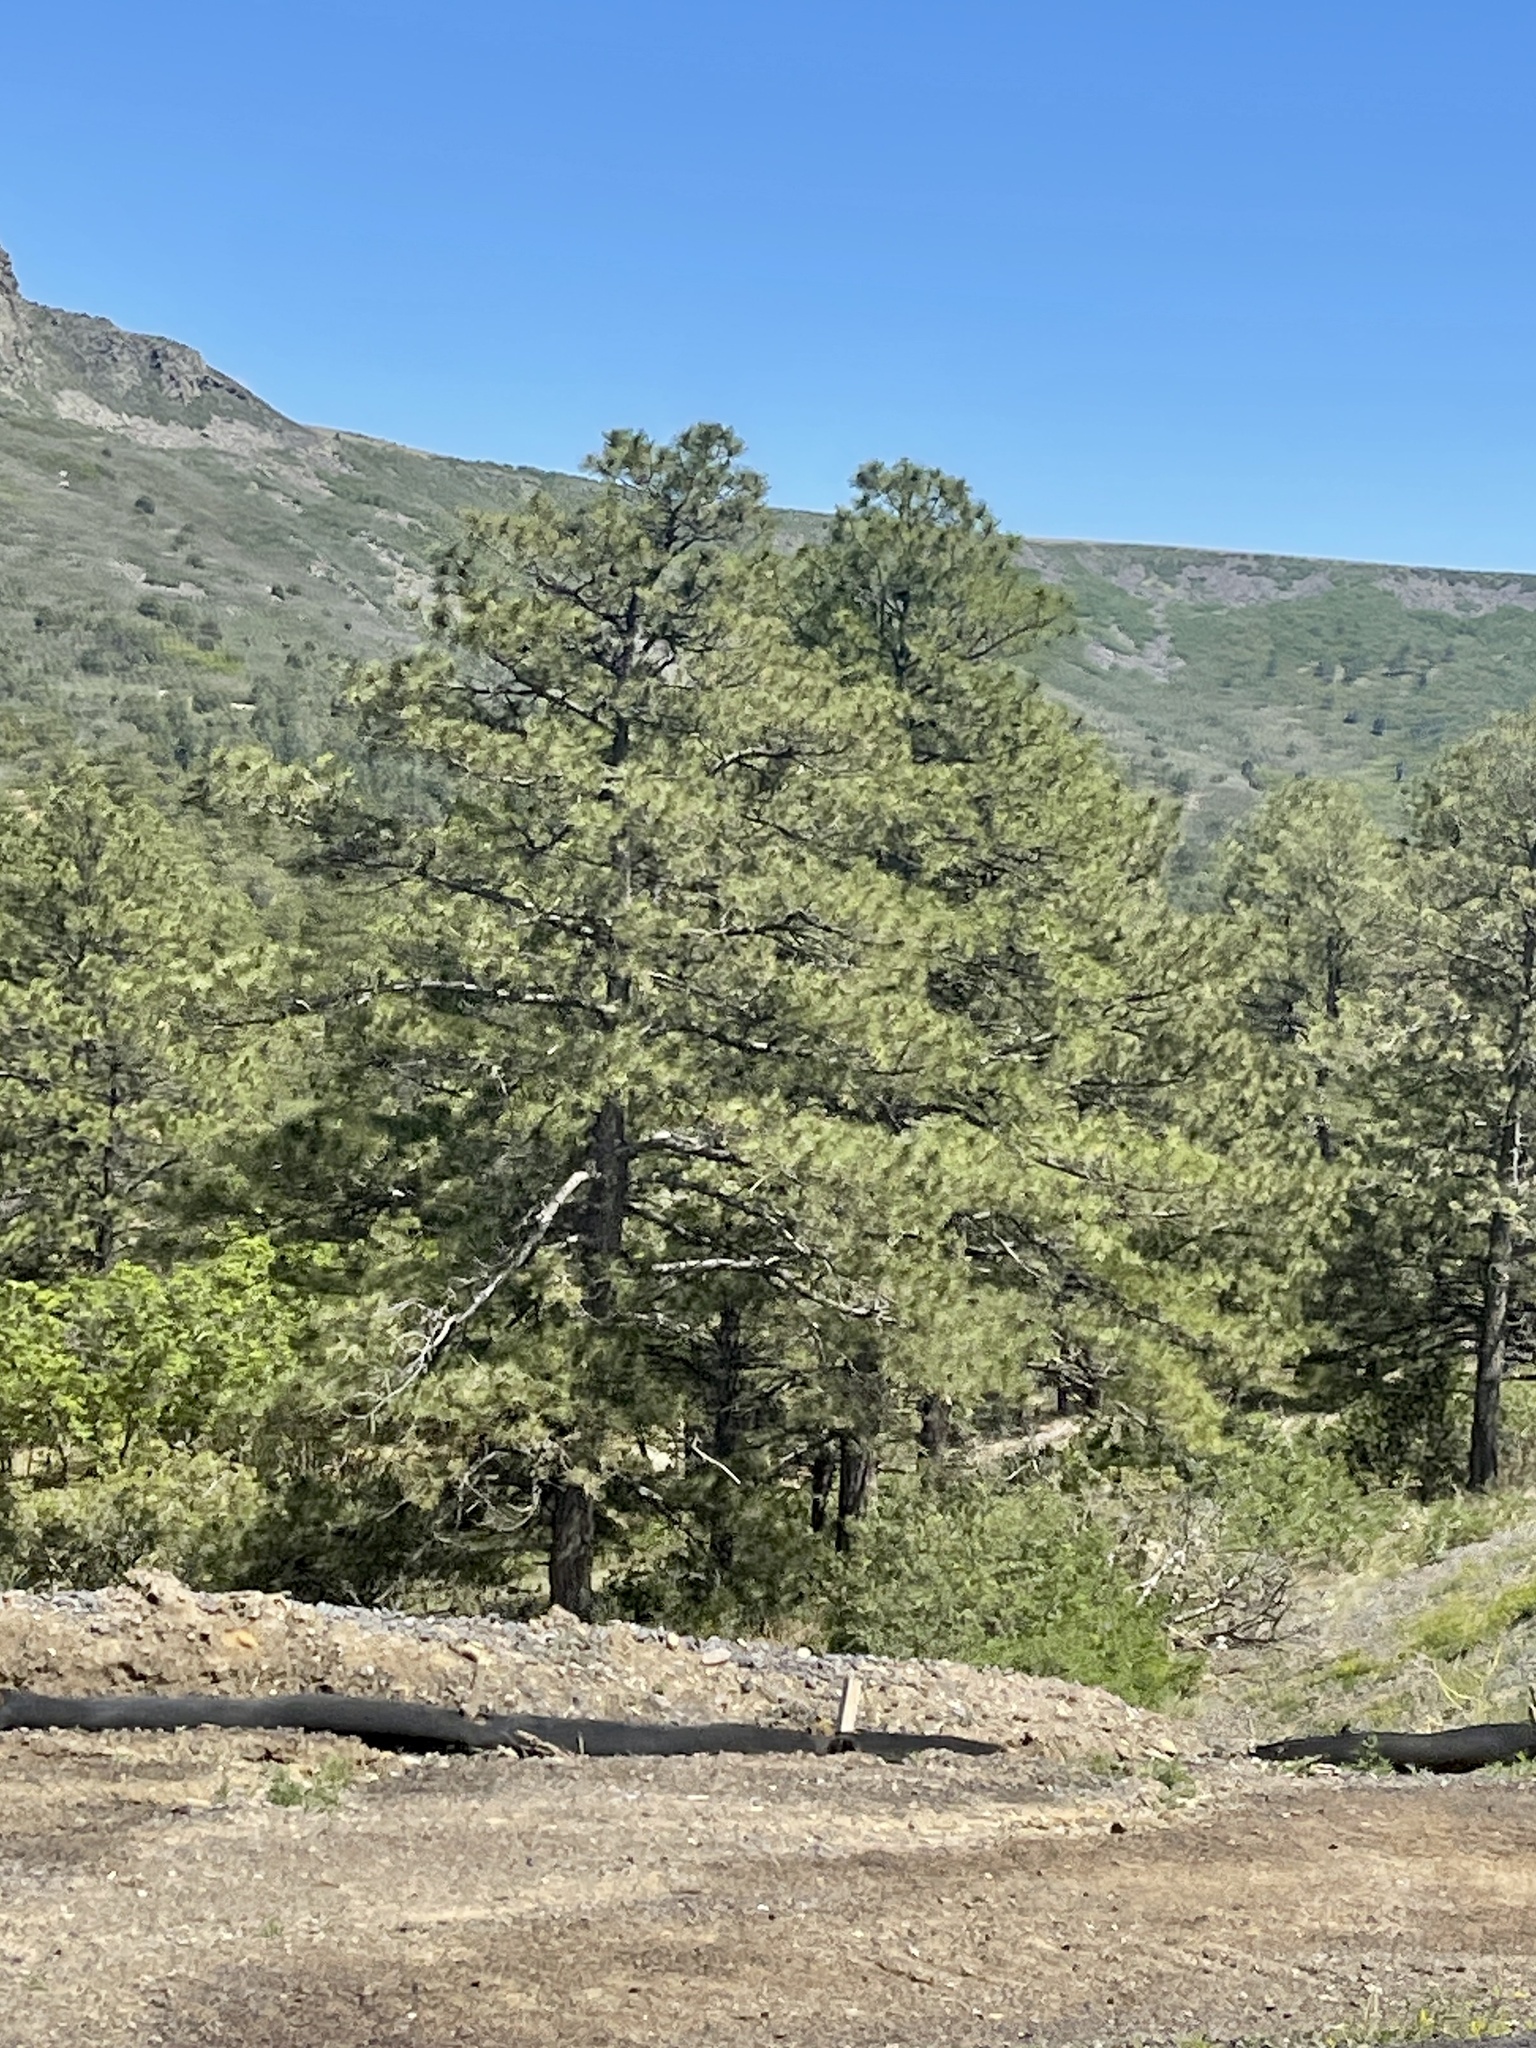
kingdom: Plantae
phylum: Tracheophyta
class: Pinopsida
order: Pinales
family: Pinaceae
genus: Pinus
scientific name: Pinus ponderosa
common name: Western yellow-pine
